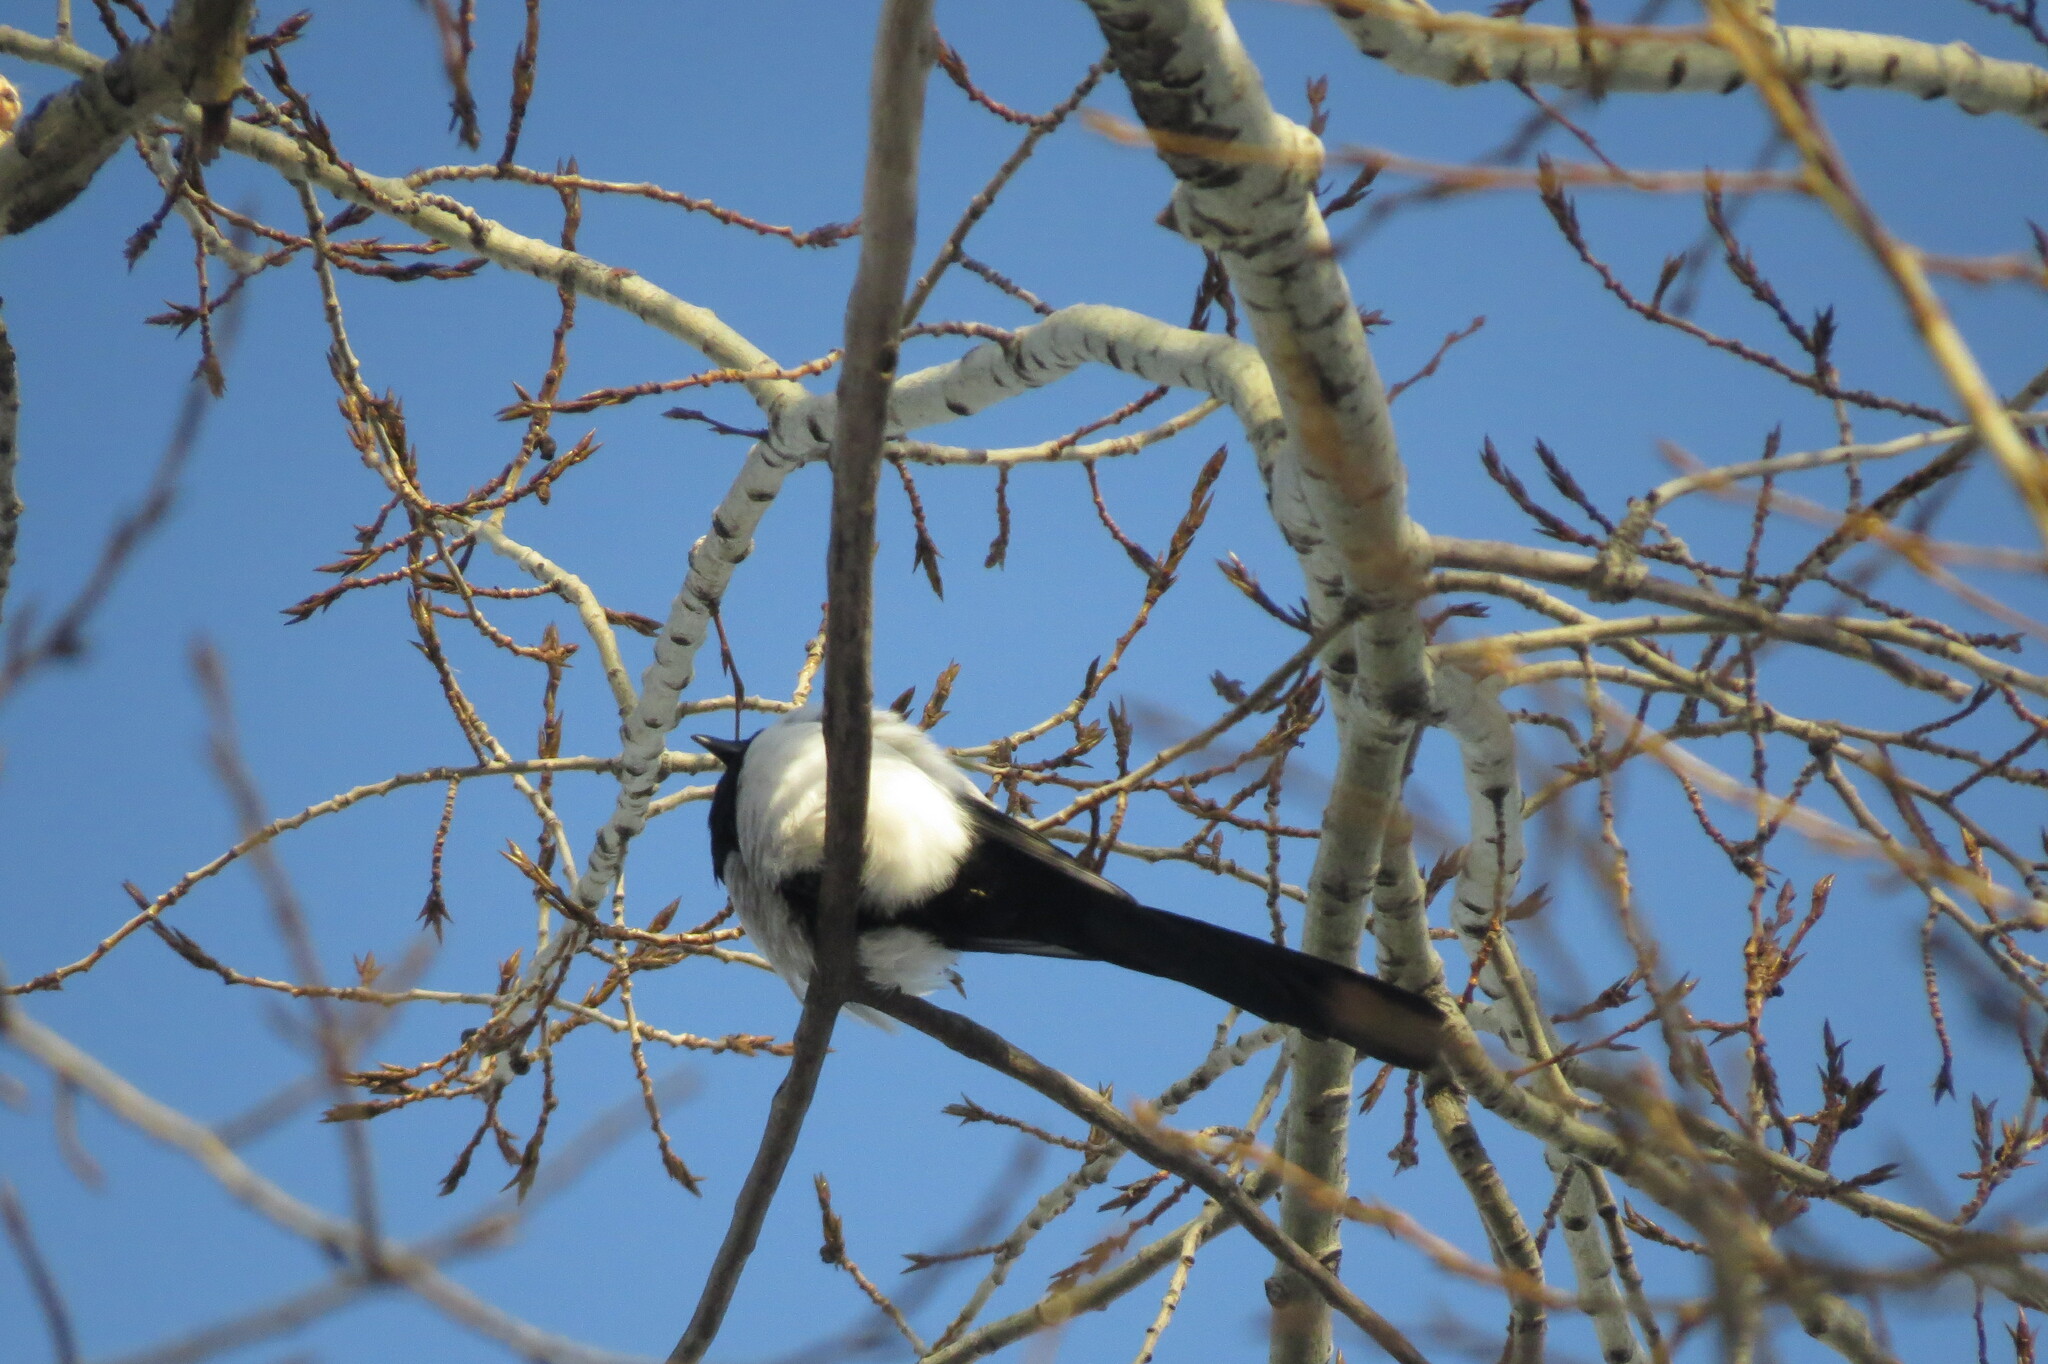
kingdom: Animalia
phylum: Chordata
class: Aves
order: Passeriformes
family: Corvidae
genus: Pica
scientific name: Pica pica
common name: Eurasian magpie
